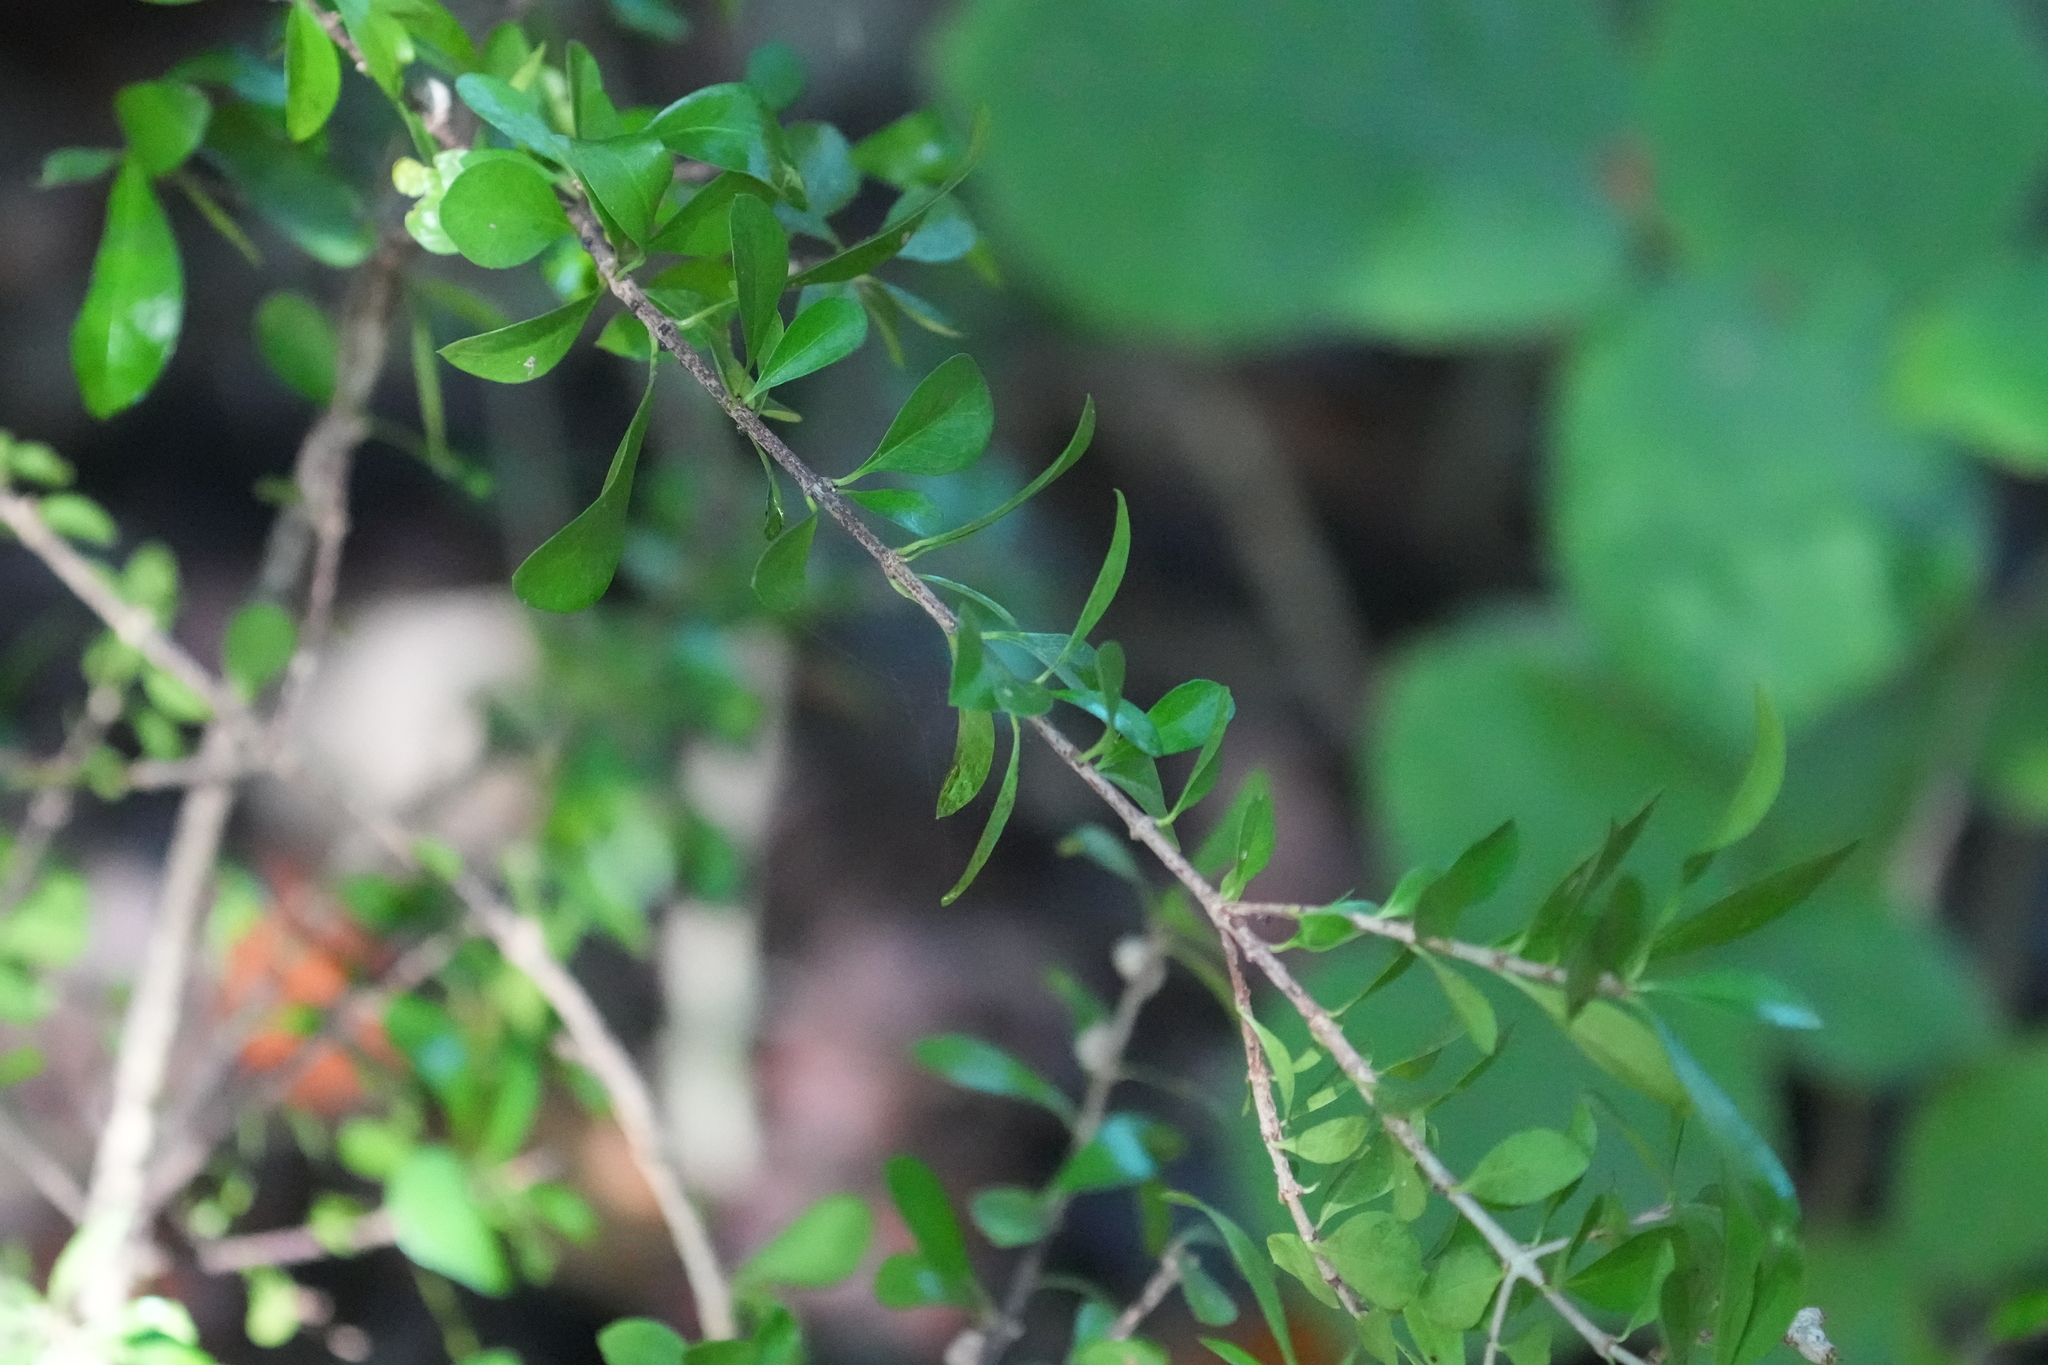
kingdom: Plantae
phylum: Tracheophyta
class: Magnoliopsida
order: Gentianales
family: Rubiaceae
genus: Randia
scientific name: Randia aculeata
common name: Inkberry
